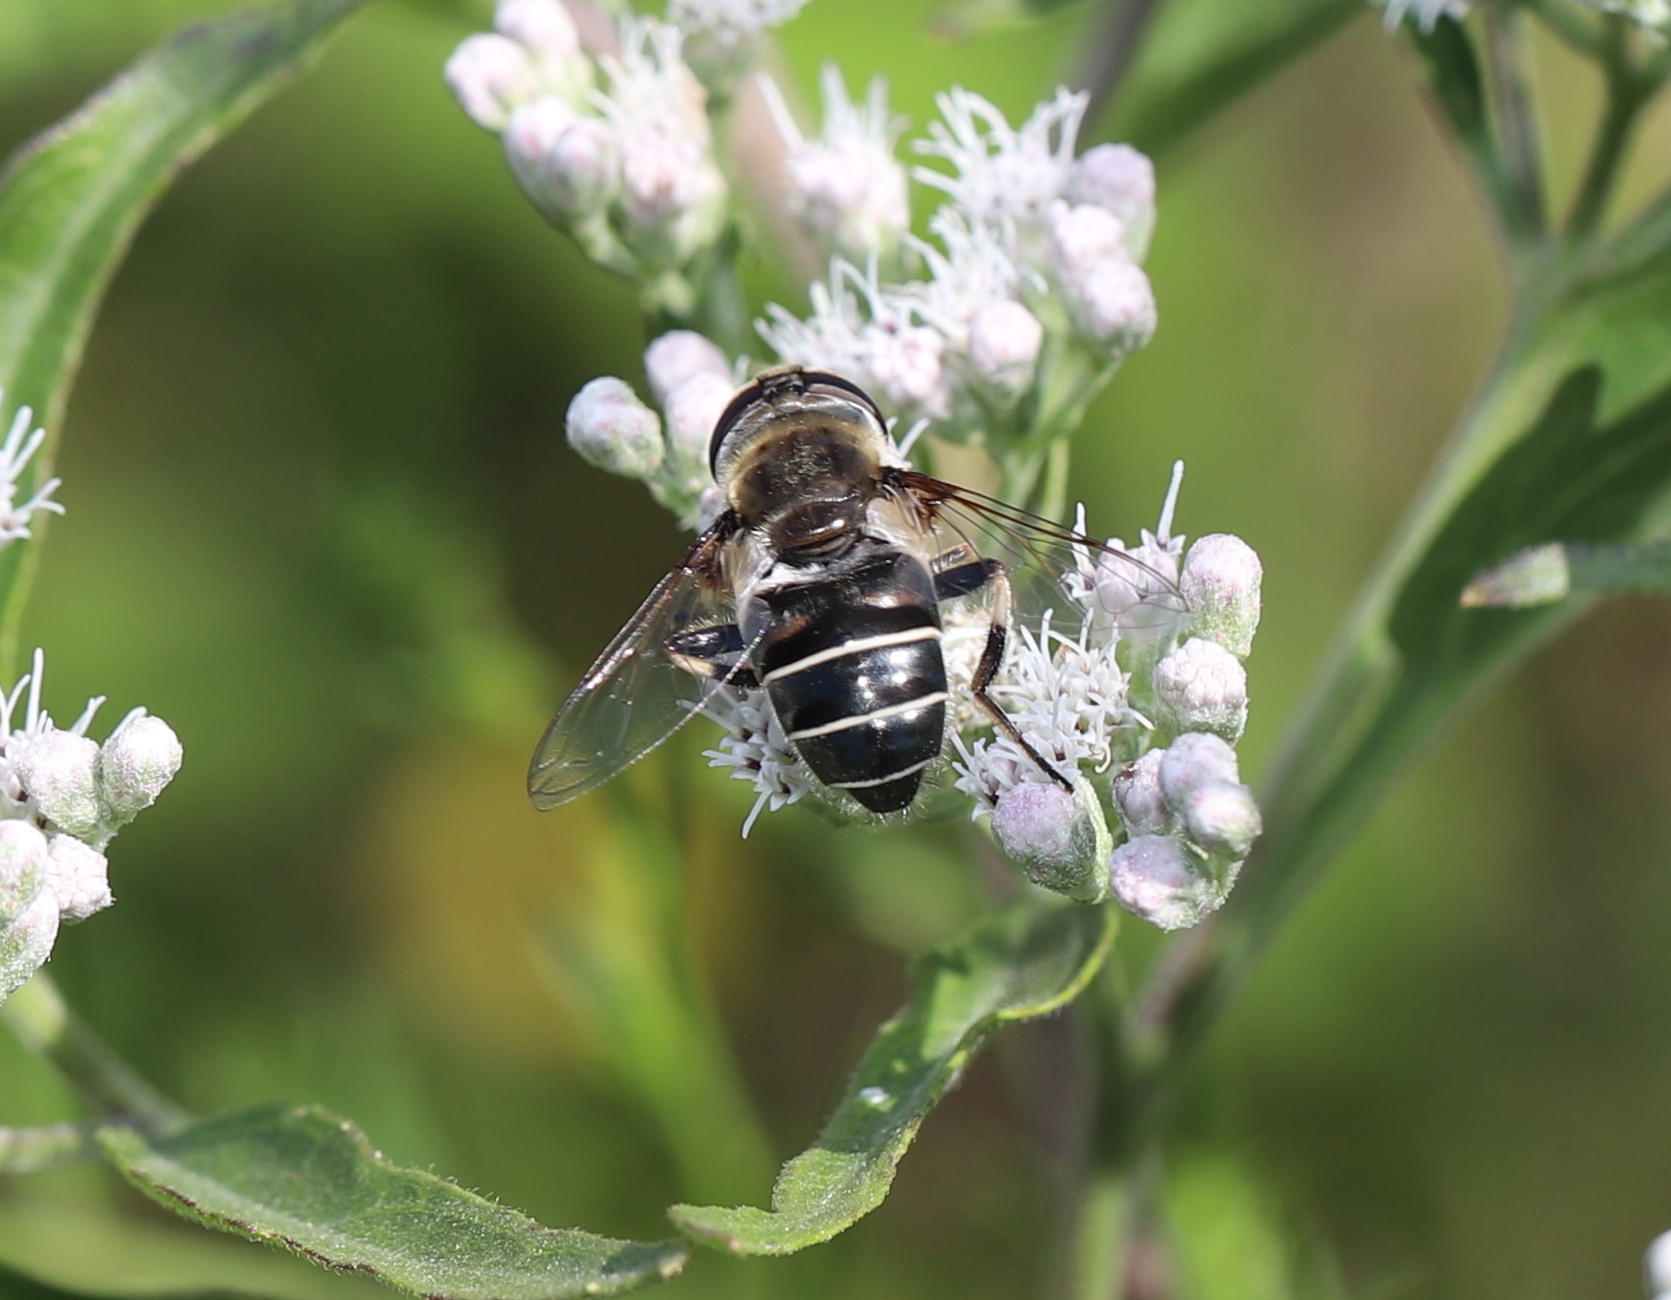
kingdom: Animalia
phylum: Arthropoda
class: Insecta
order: Diptera
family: Syrphidae
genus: Eristalis
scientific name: Eristalis dimidiata
